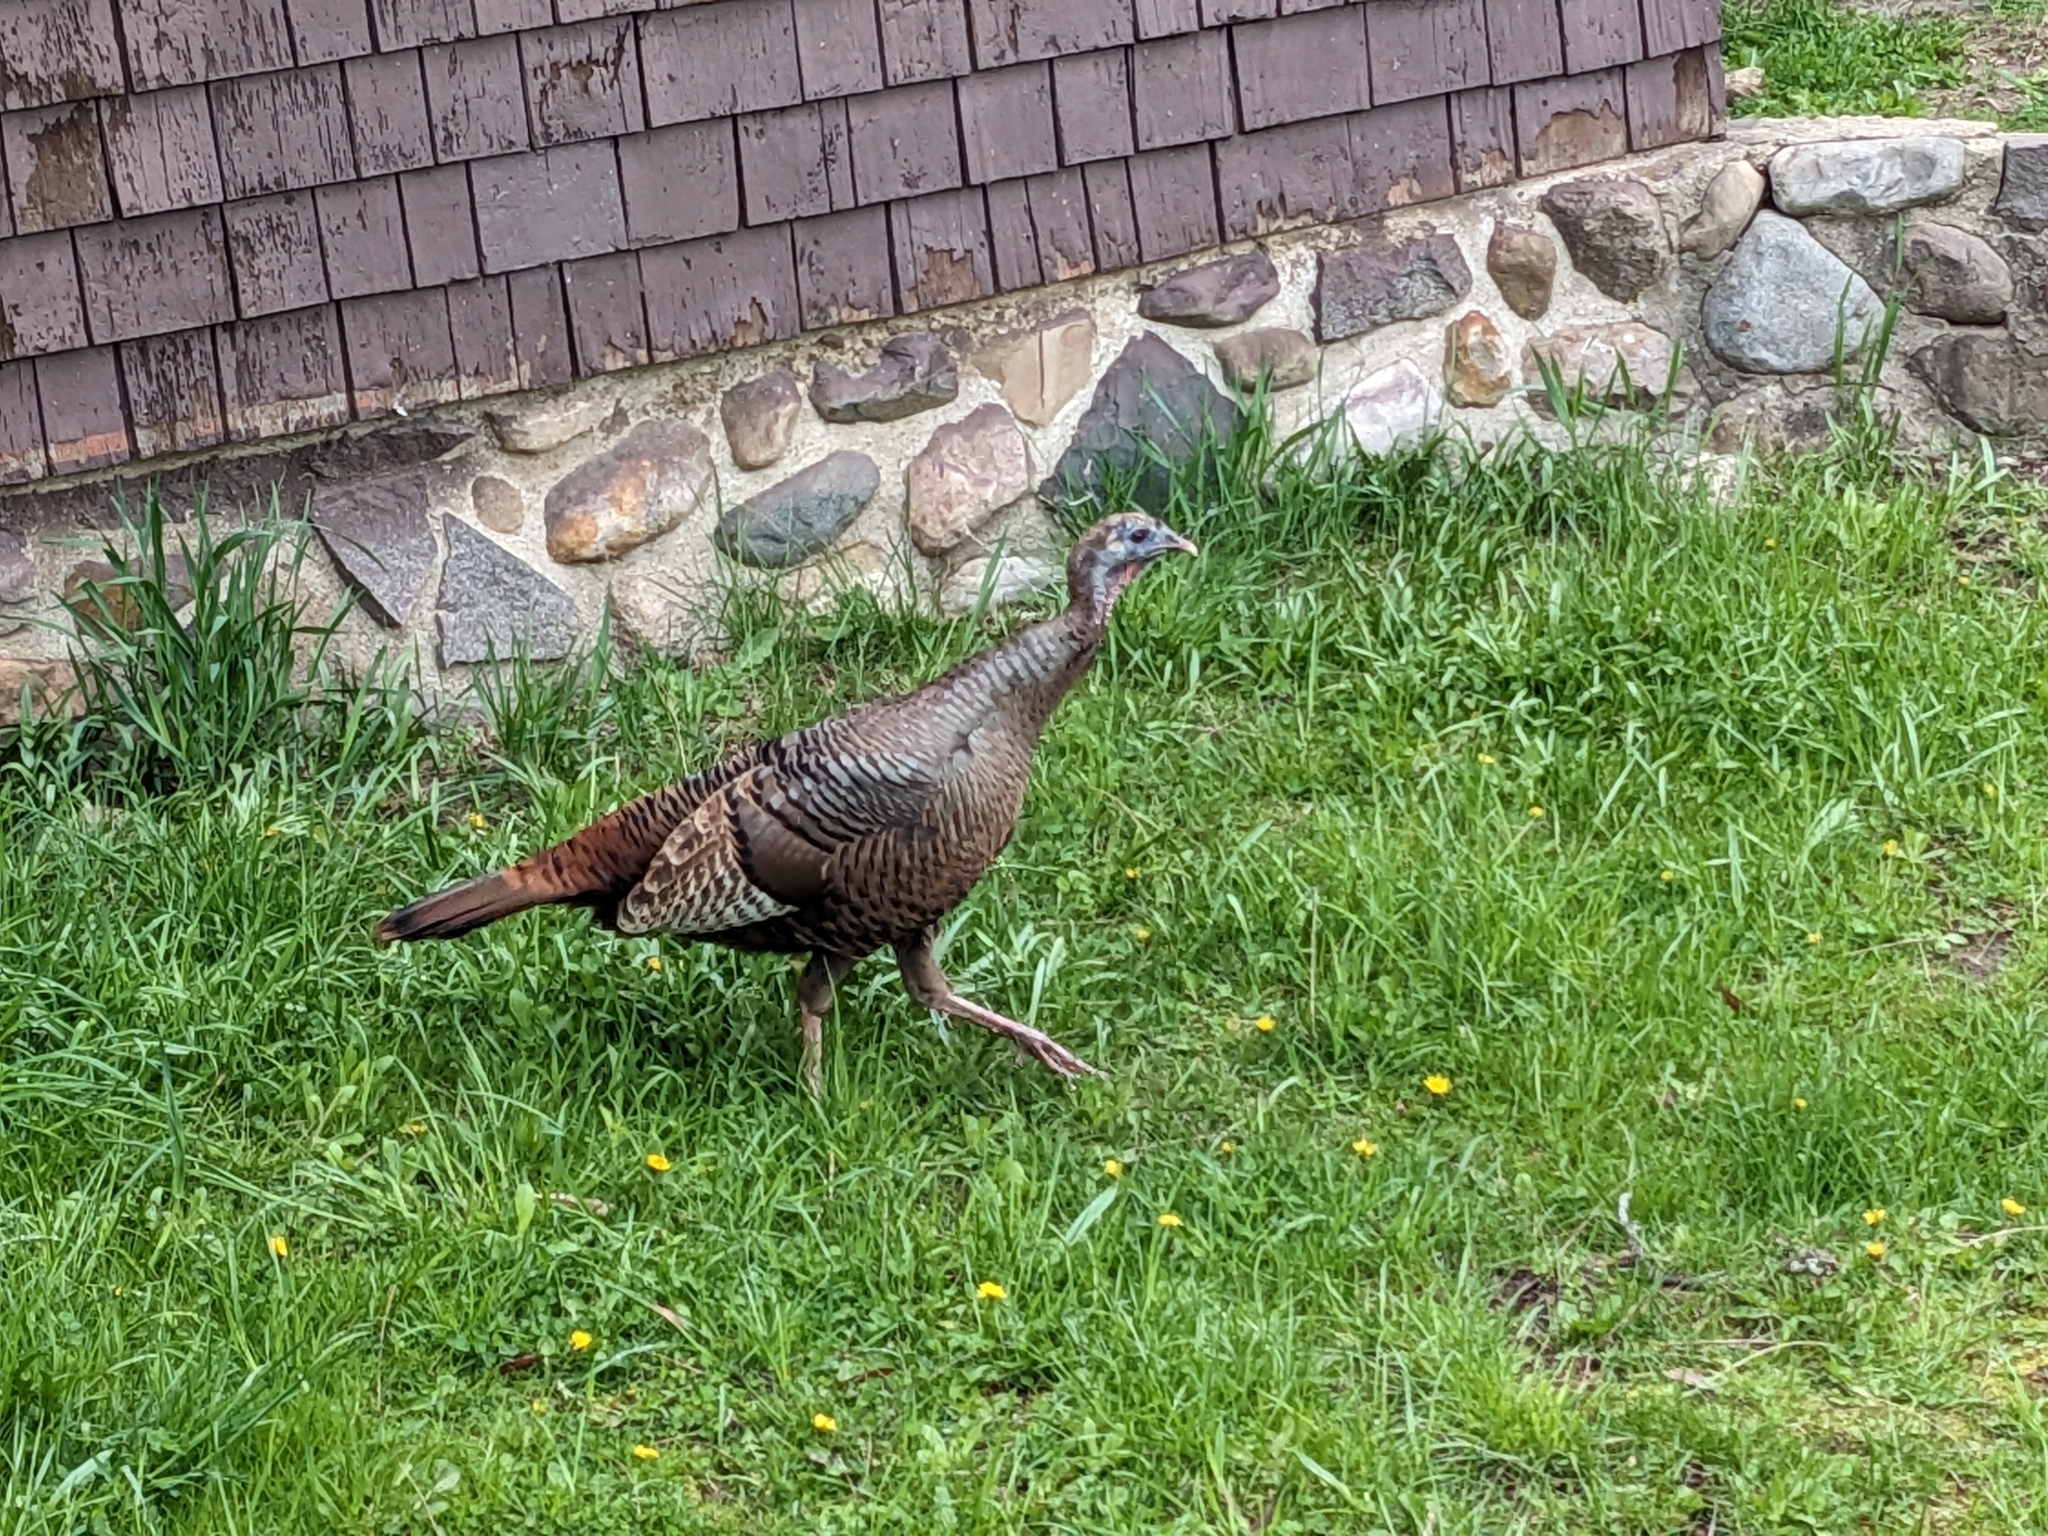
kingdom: Animalia
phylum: Chordata
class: Aves
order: Galliformes
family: Phasianidae
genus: Meleagris
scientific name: Meleagris gallopavo
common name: Wild turkey
